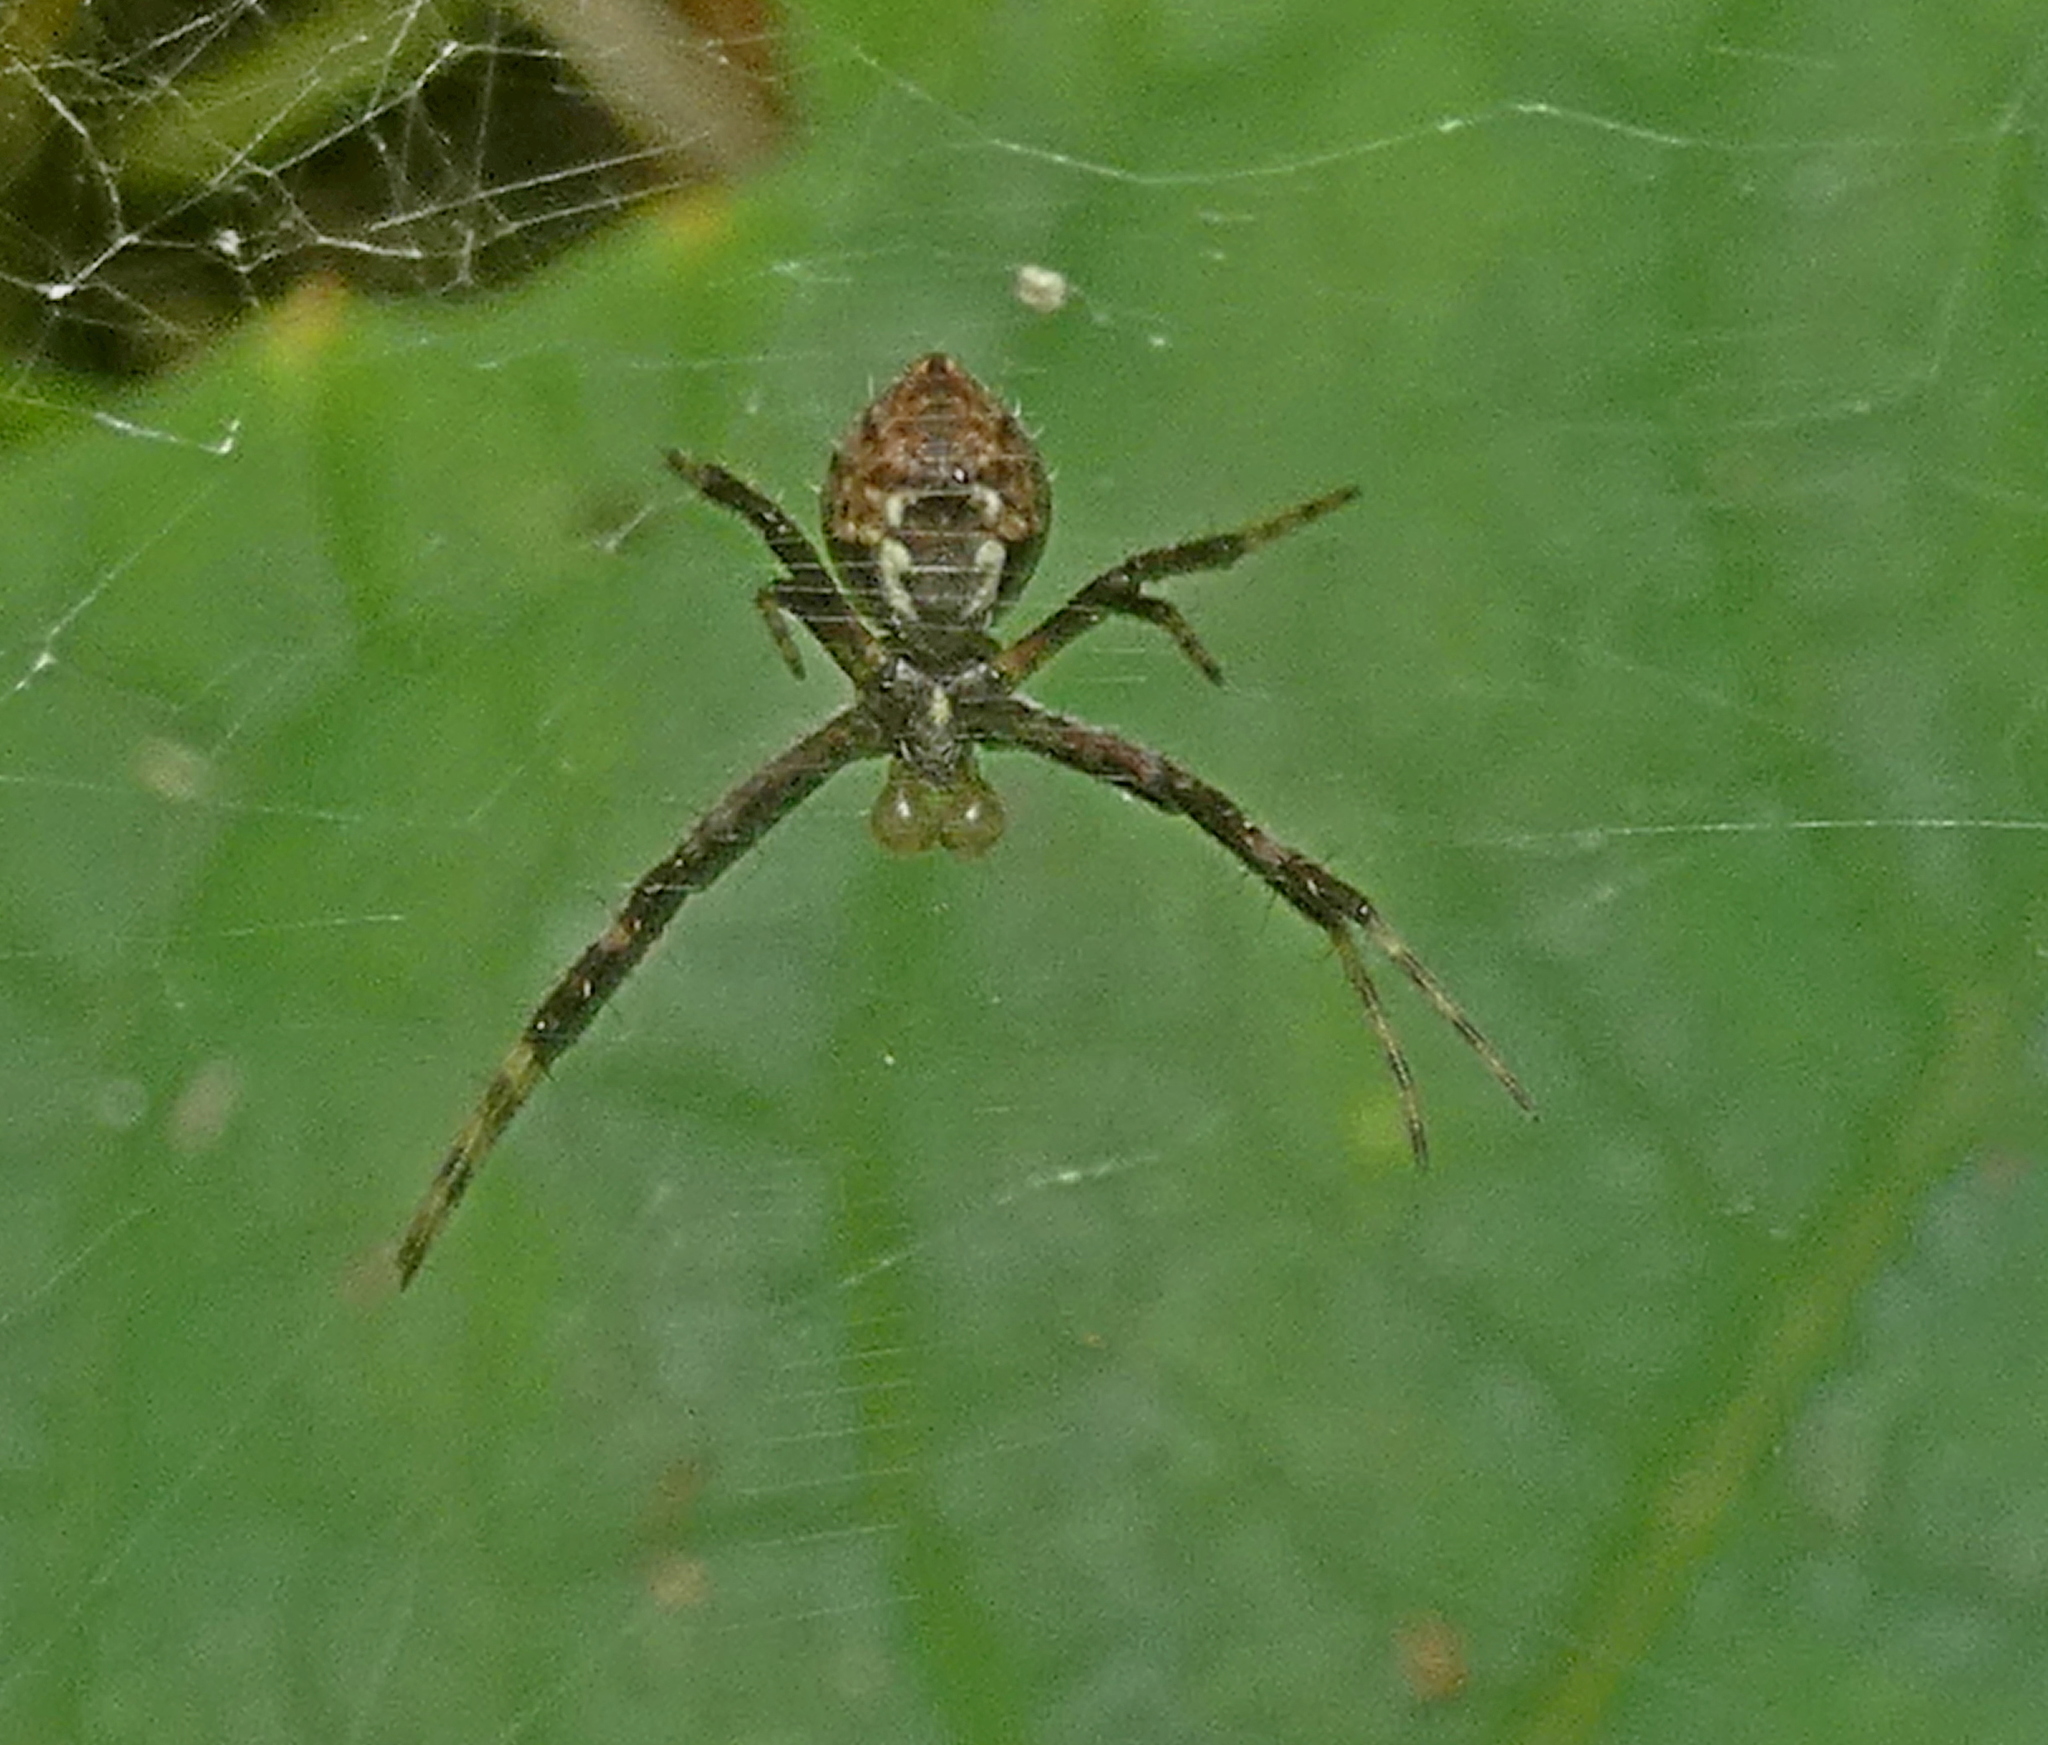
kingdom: Animalia
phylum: Arthropoda
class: Arachnida
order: Araneae
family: Araneidae
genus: Argiope
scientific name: Argiope argentata
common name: Orb weavers
